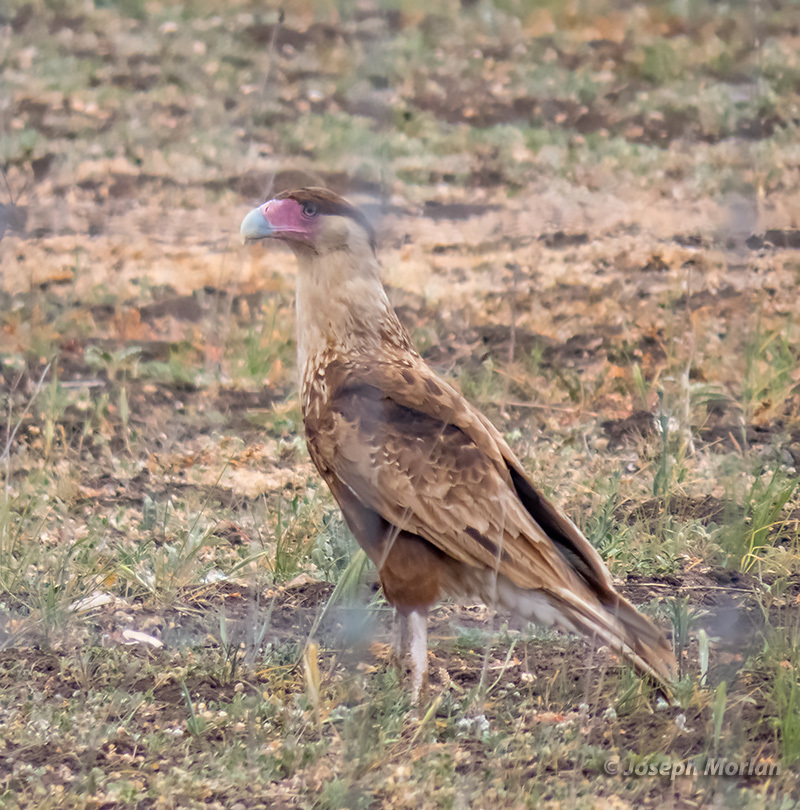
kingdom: Animalia
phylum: Chordata
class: Aves
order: Falconiformes
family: Falconidae
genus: Caracara
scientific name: Caracara plancus
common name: Southern caracara
